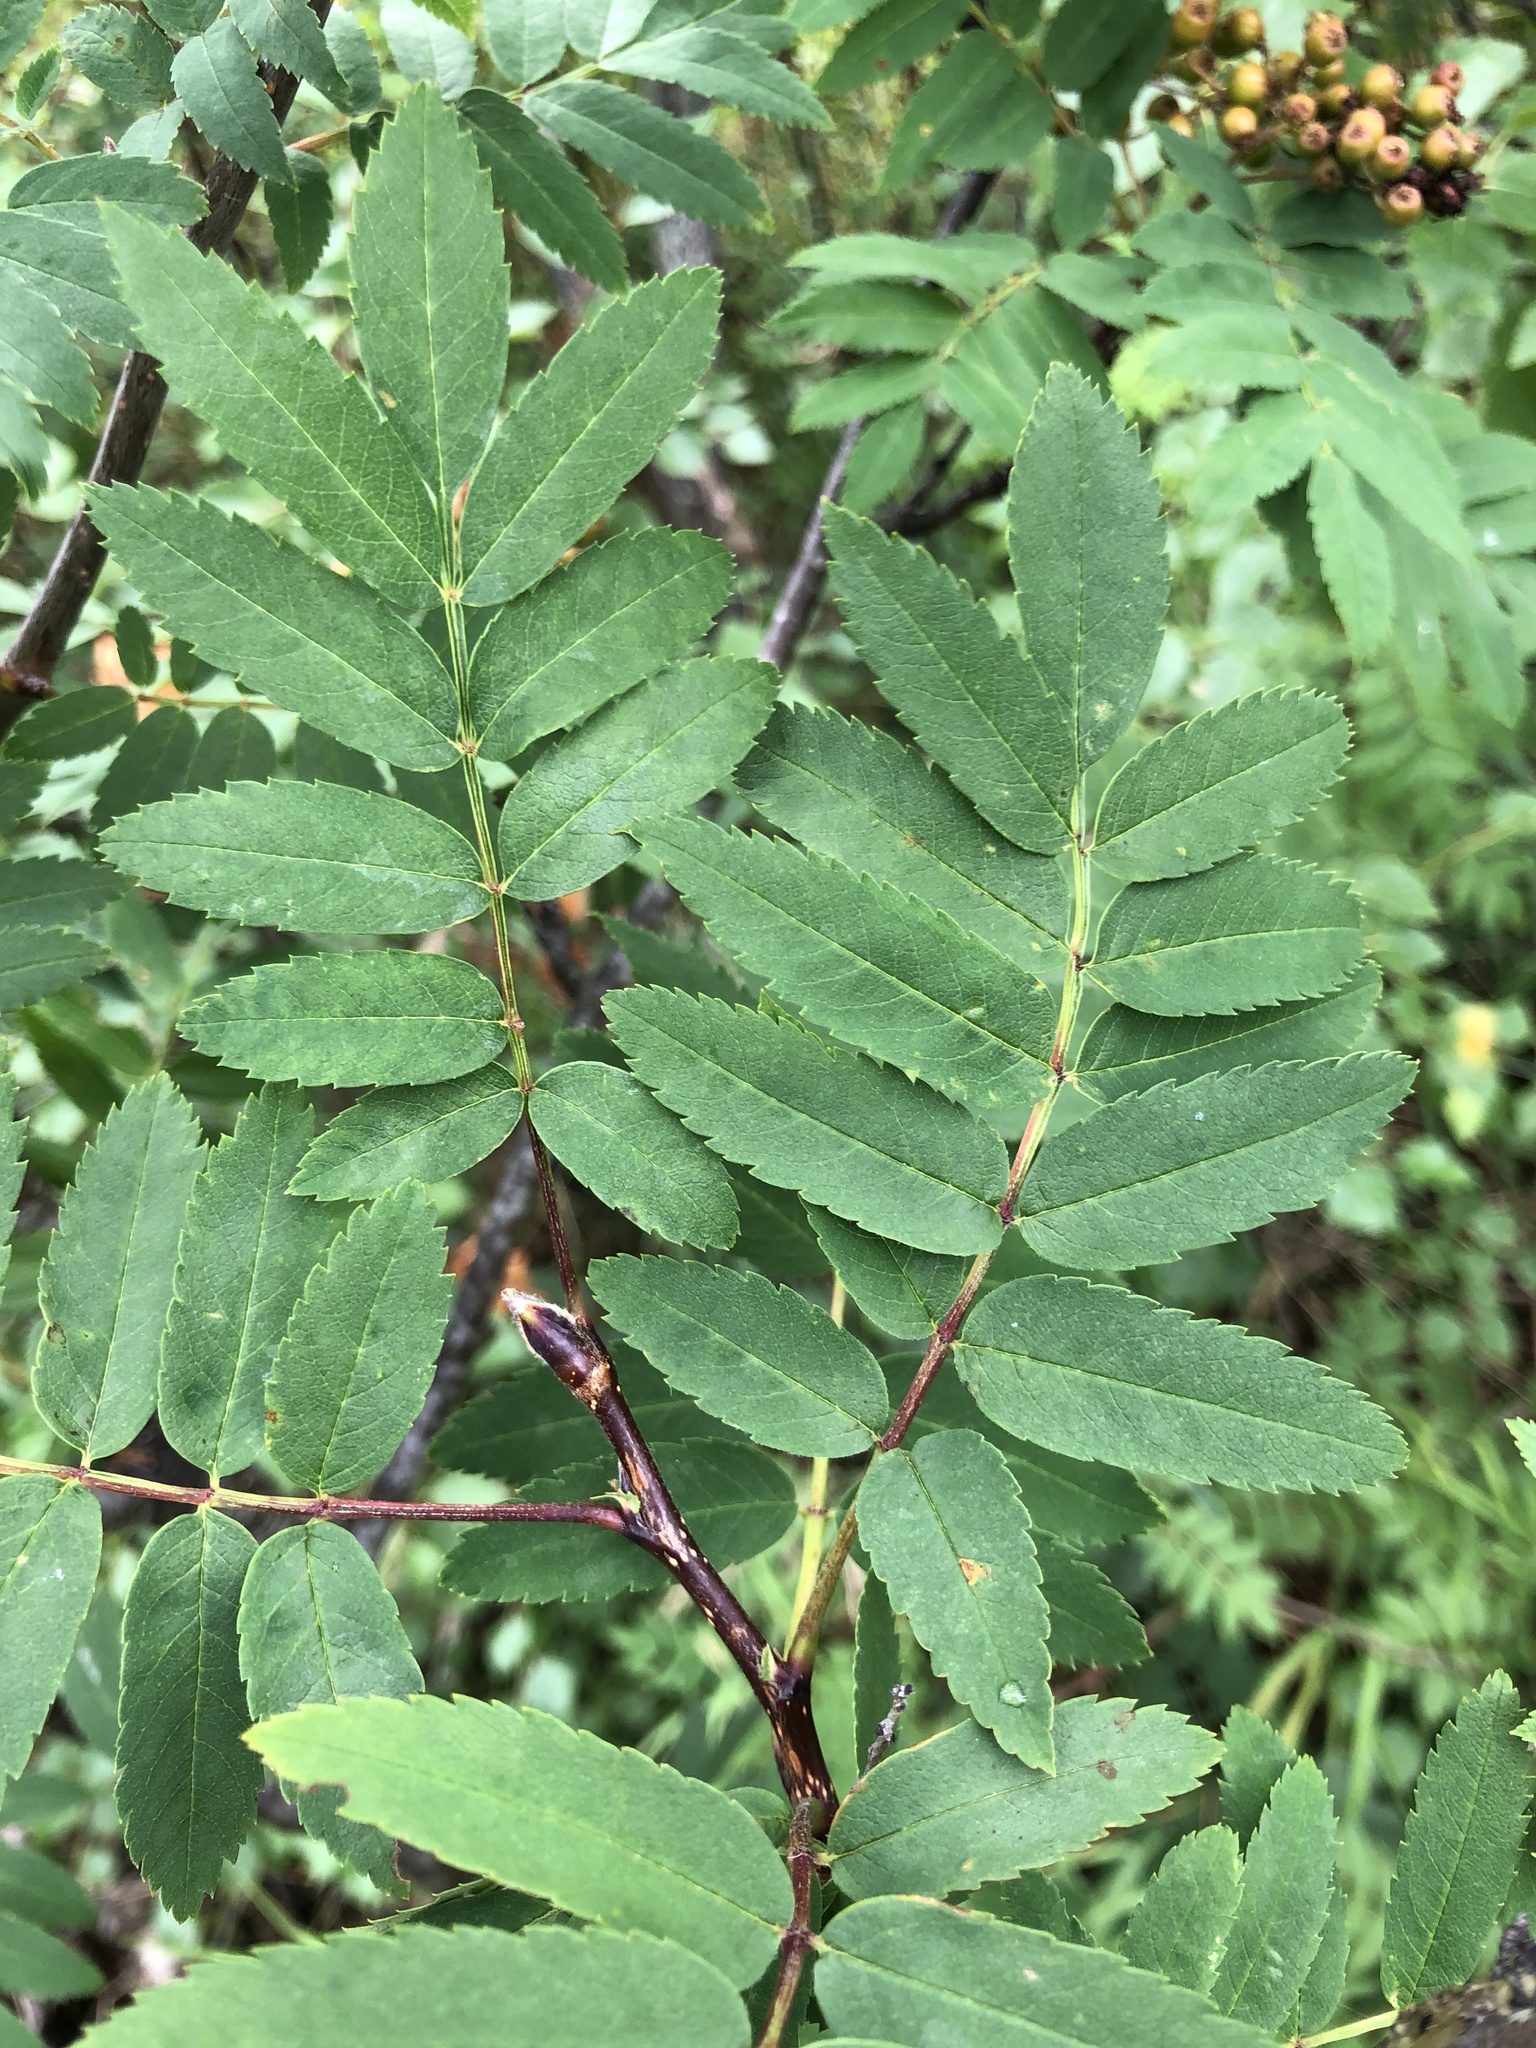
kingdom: Plantae
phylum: Tracheophyta
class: Magnoliopsida
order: Rosales
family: Rosaceae
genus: Sorbus
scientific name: Sorbus aucuparia
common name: Rowan
